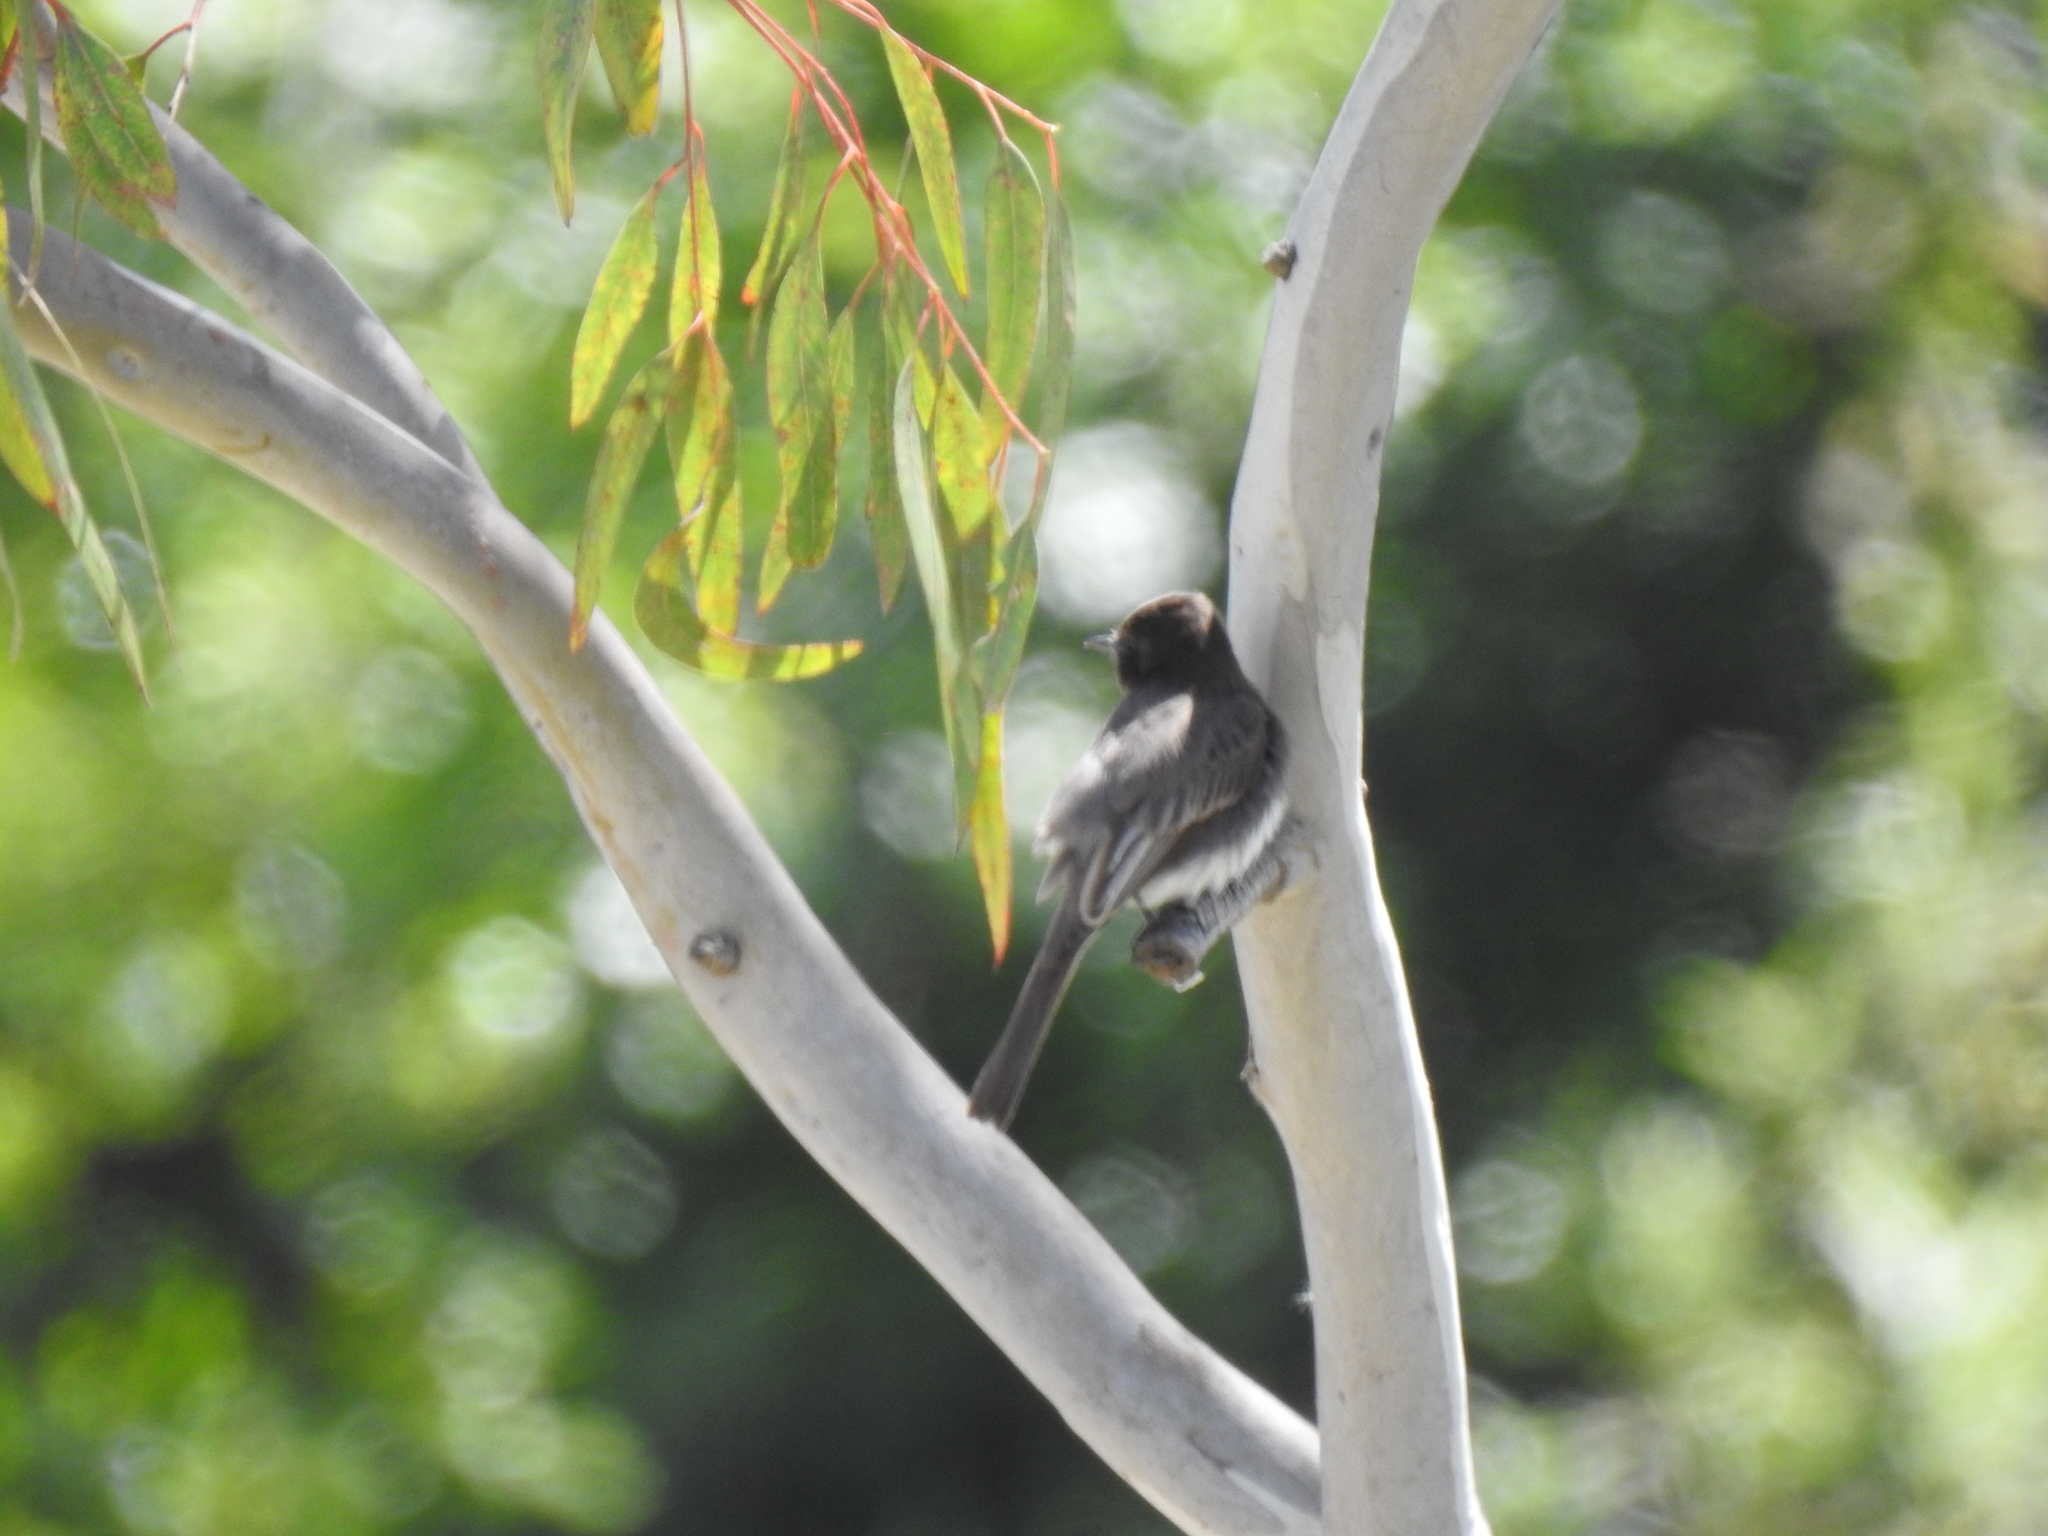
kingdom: Animalia
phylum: Chordata
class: Aves
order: Passeriformes
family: Tyrannidae
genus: Sayornis
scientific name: Sayornis nigricans
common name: Black phoebe
